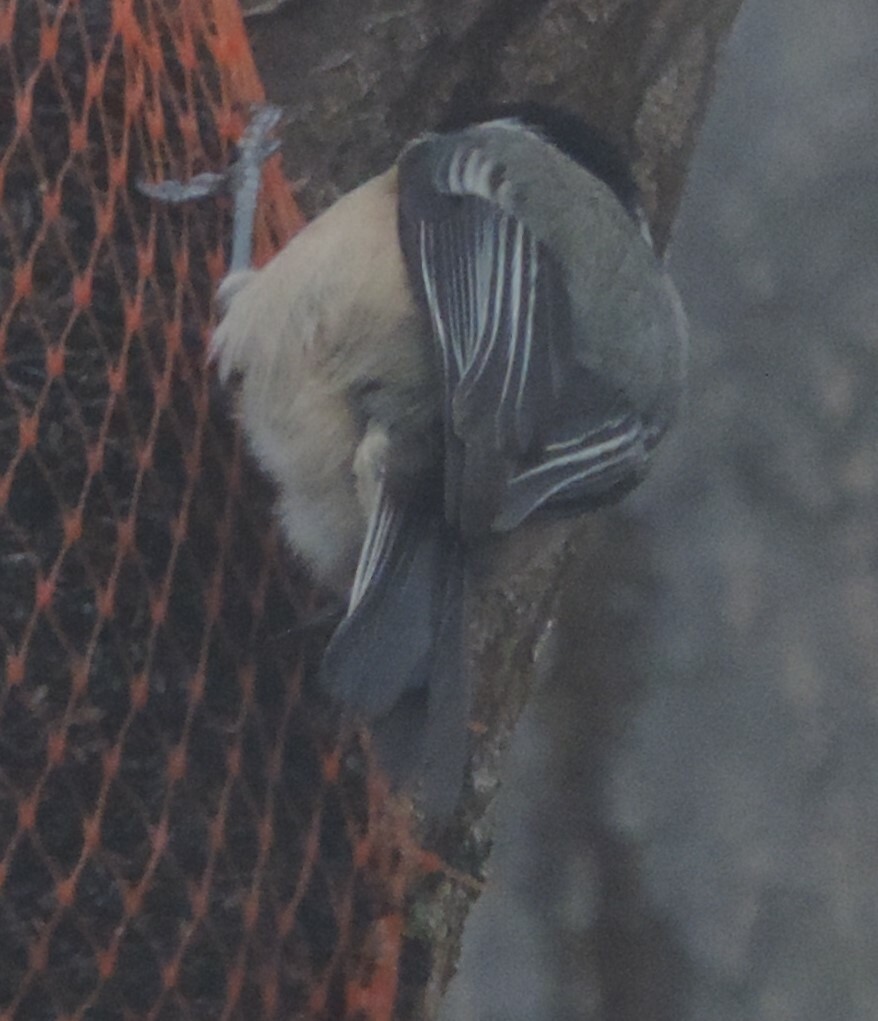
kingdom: Animalia
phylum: Chordata
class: Aves
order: Passeriformes
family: Paridae
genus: Poecile
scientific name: Poecile atricapillus
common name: Black-capped chickadee
